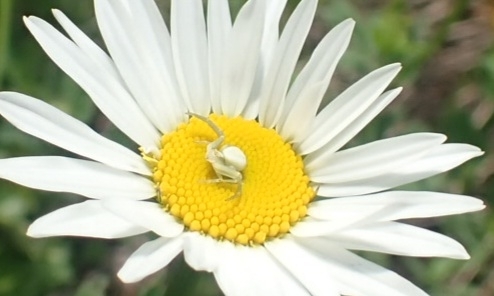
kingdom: Animalia
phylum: Arthropoda
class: Arachnida
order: Araneae
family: Thomisidae
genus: Misumena
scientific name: Misumena vatia
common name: Goldenrod crab spider
